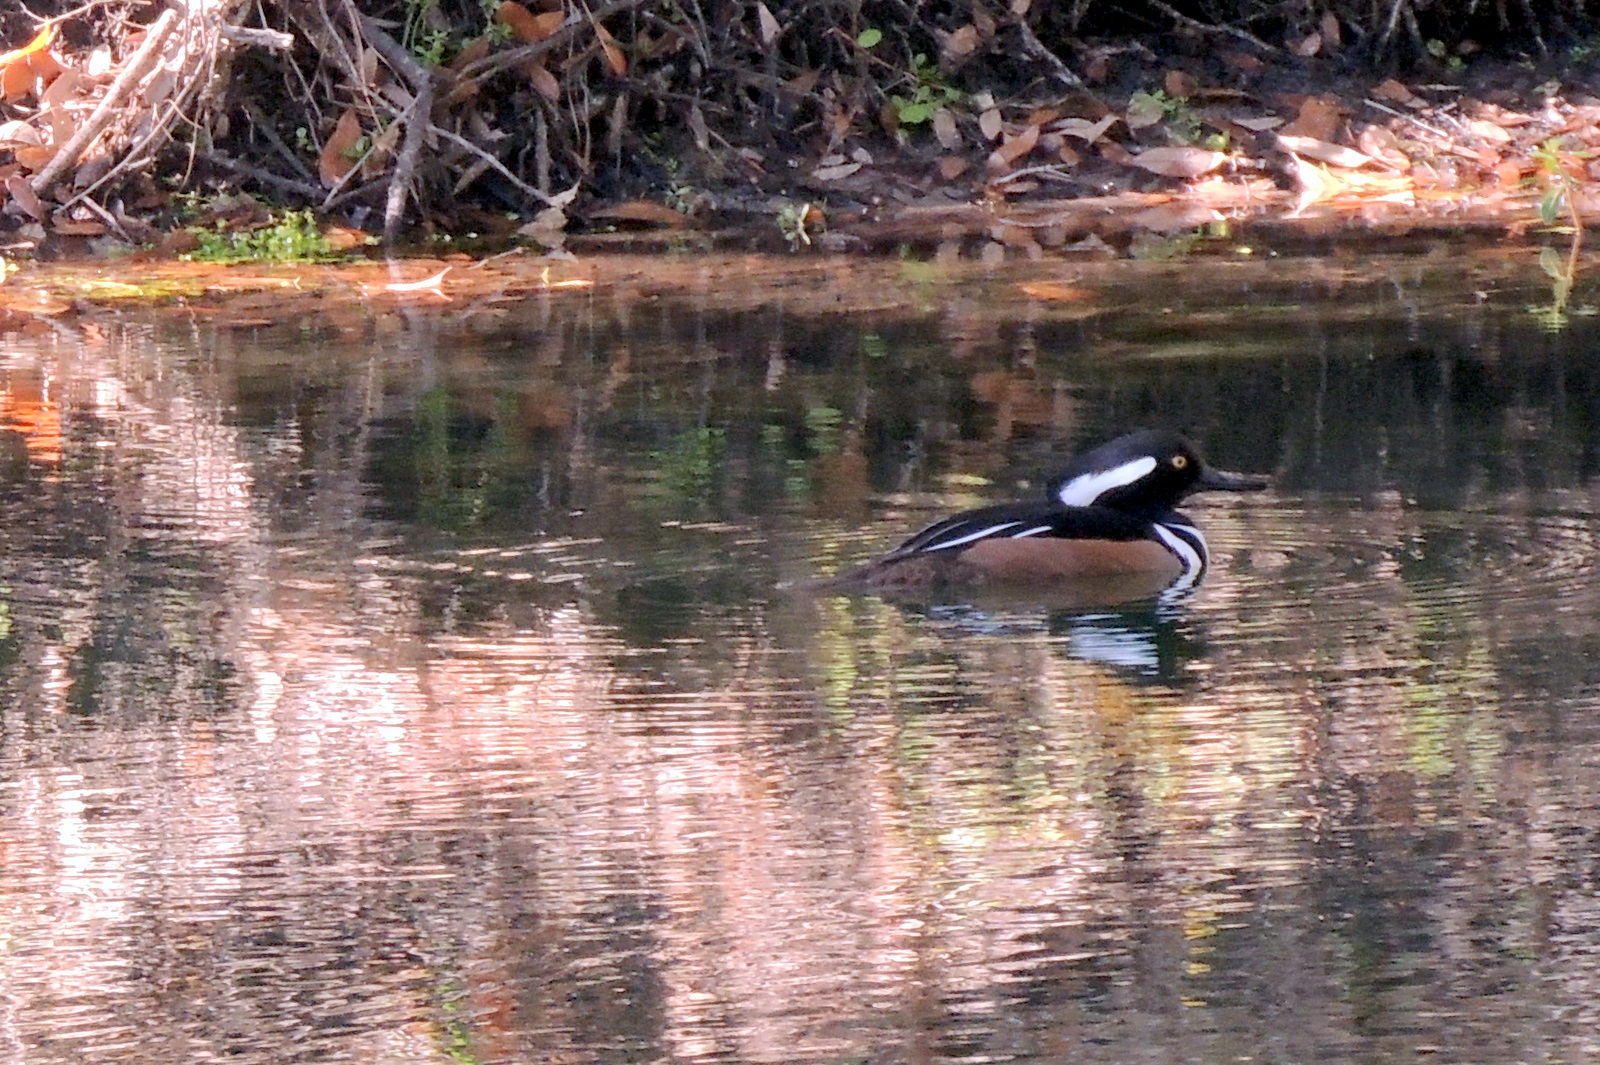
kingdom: Animalia
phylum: Chordata
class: Aves
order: Anseriformes
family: Anatidae
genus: Lophodytes
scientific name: Lophodytes cucullatus
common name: Hooded merganser
